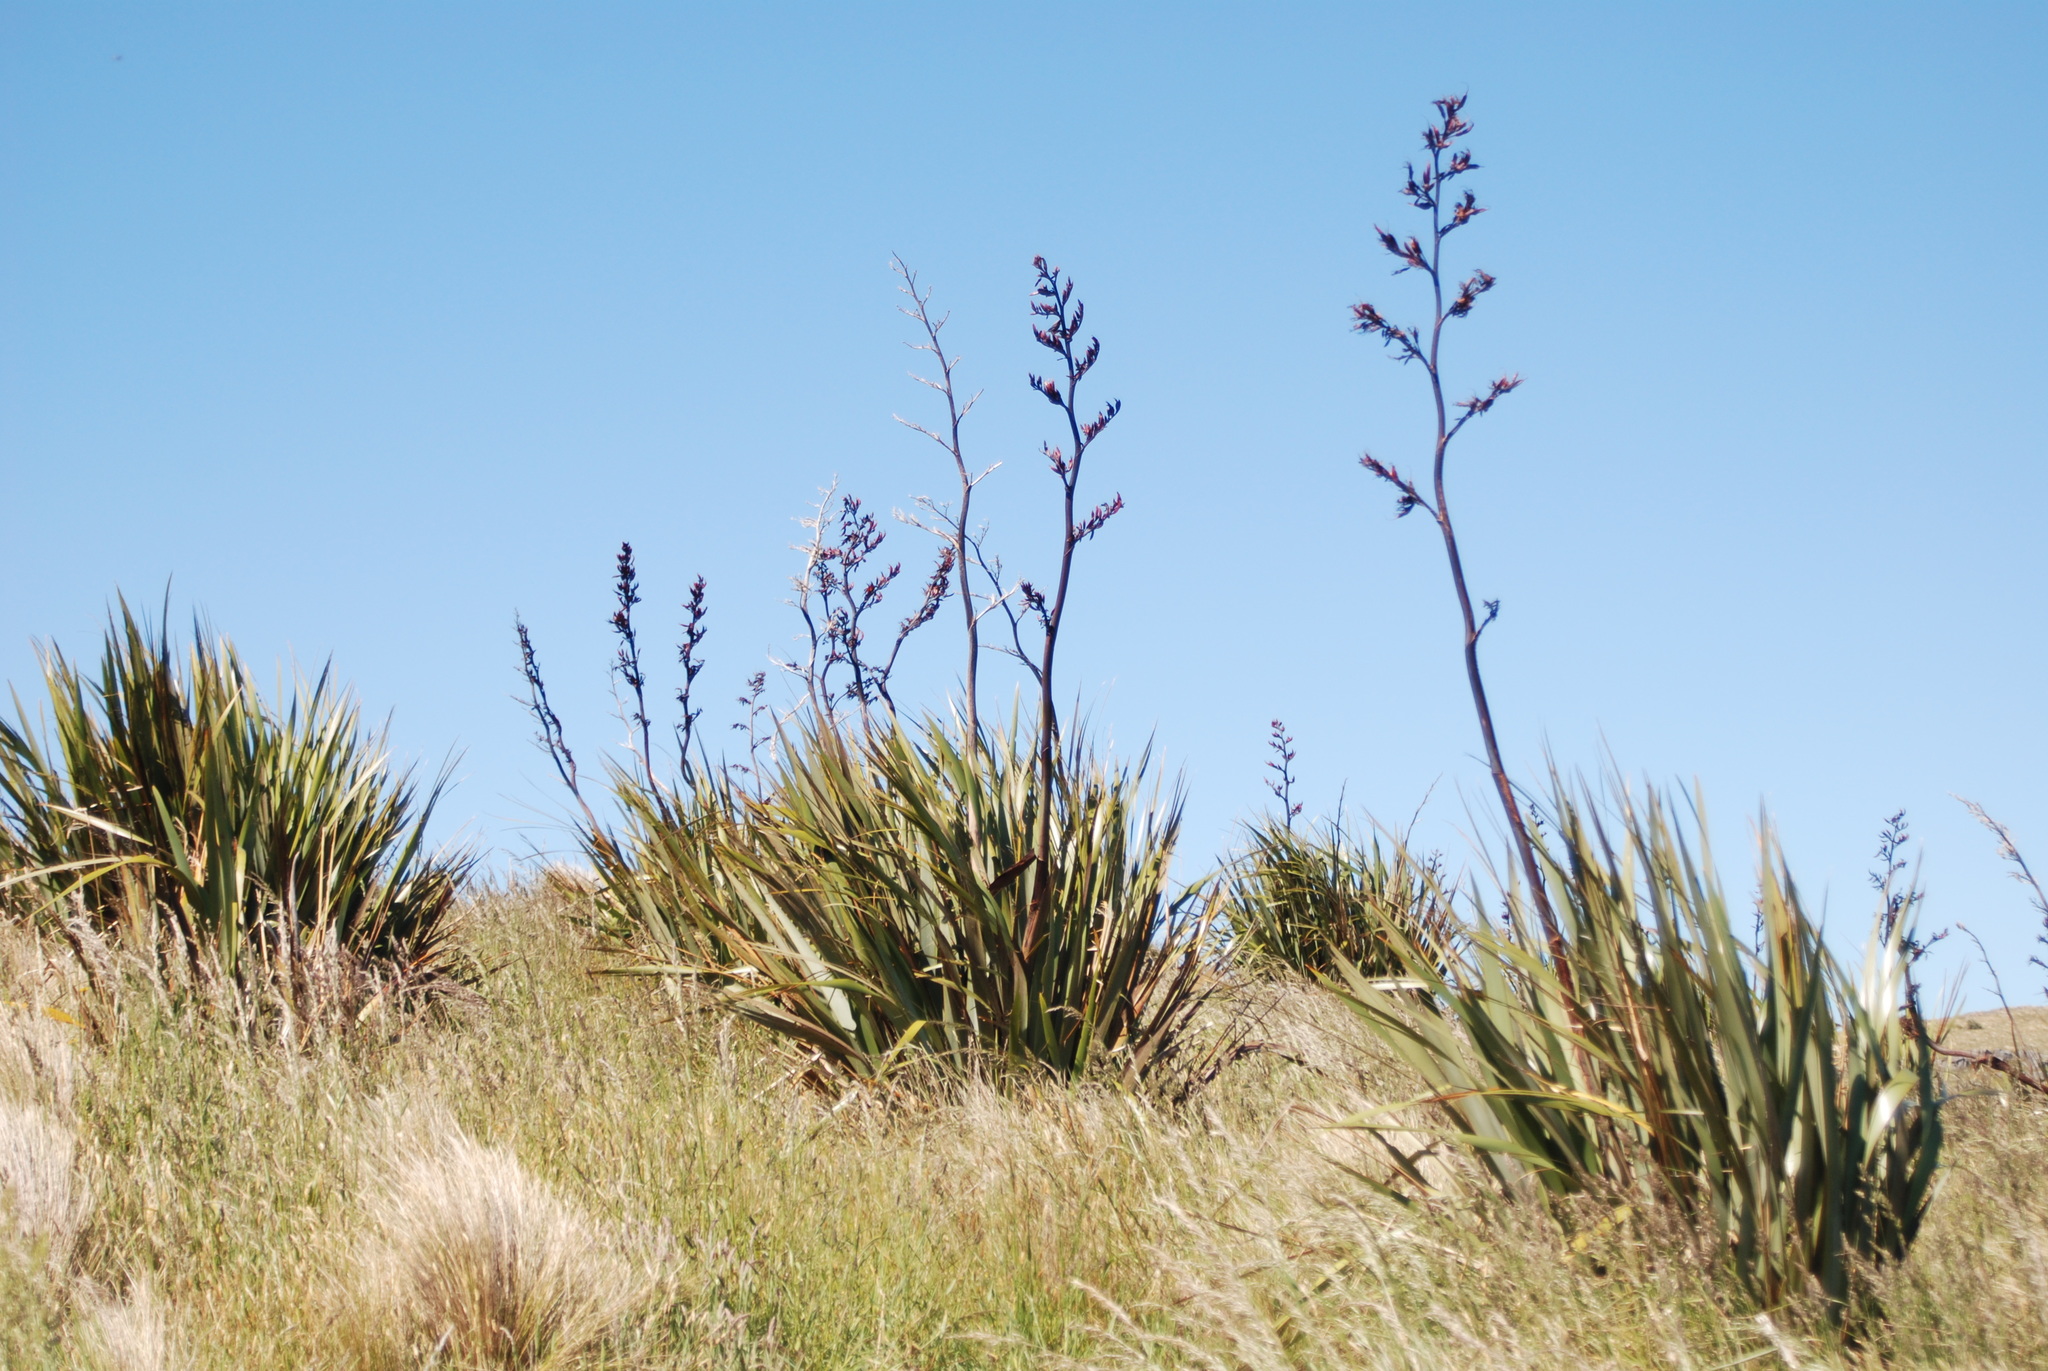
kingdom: Plantae
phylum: Tracheophyta
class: Liliopsida
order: Asparagales
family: Asphodelaceae
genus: Phormium
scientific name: Phormium tenax
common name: New zealand flax
